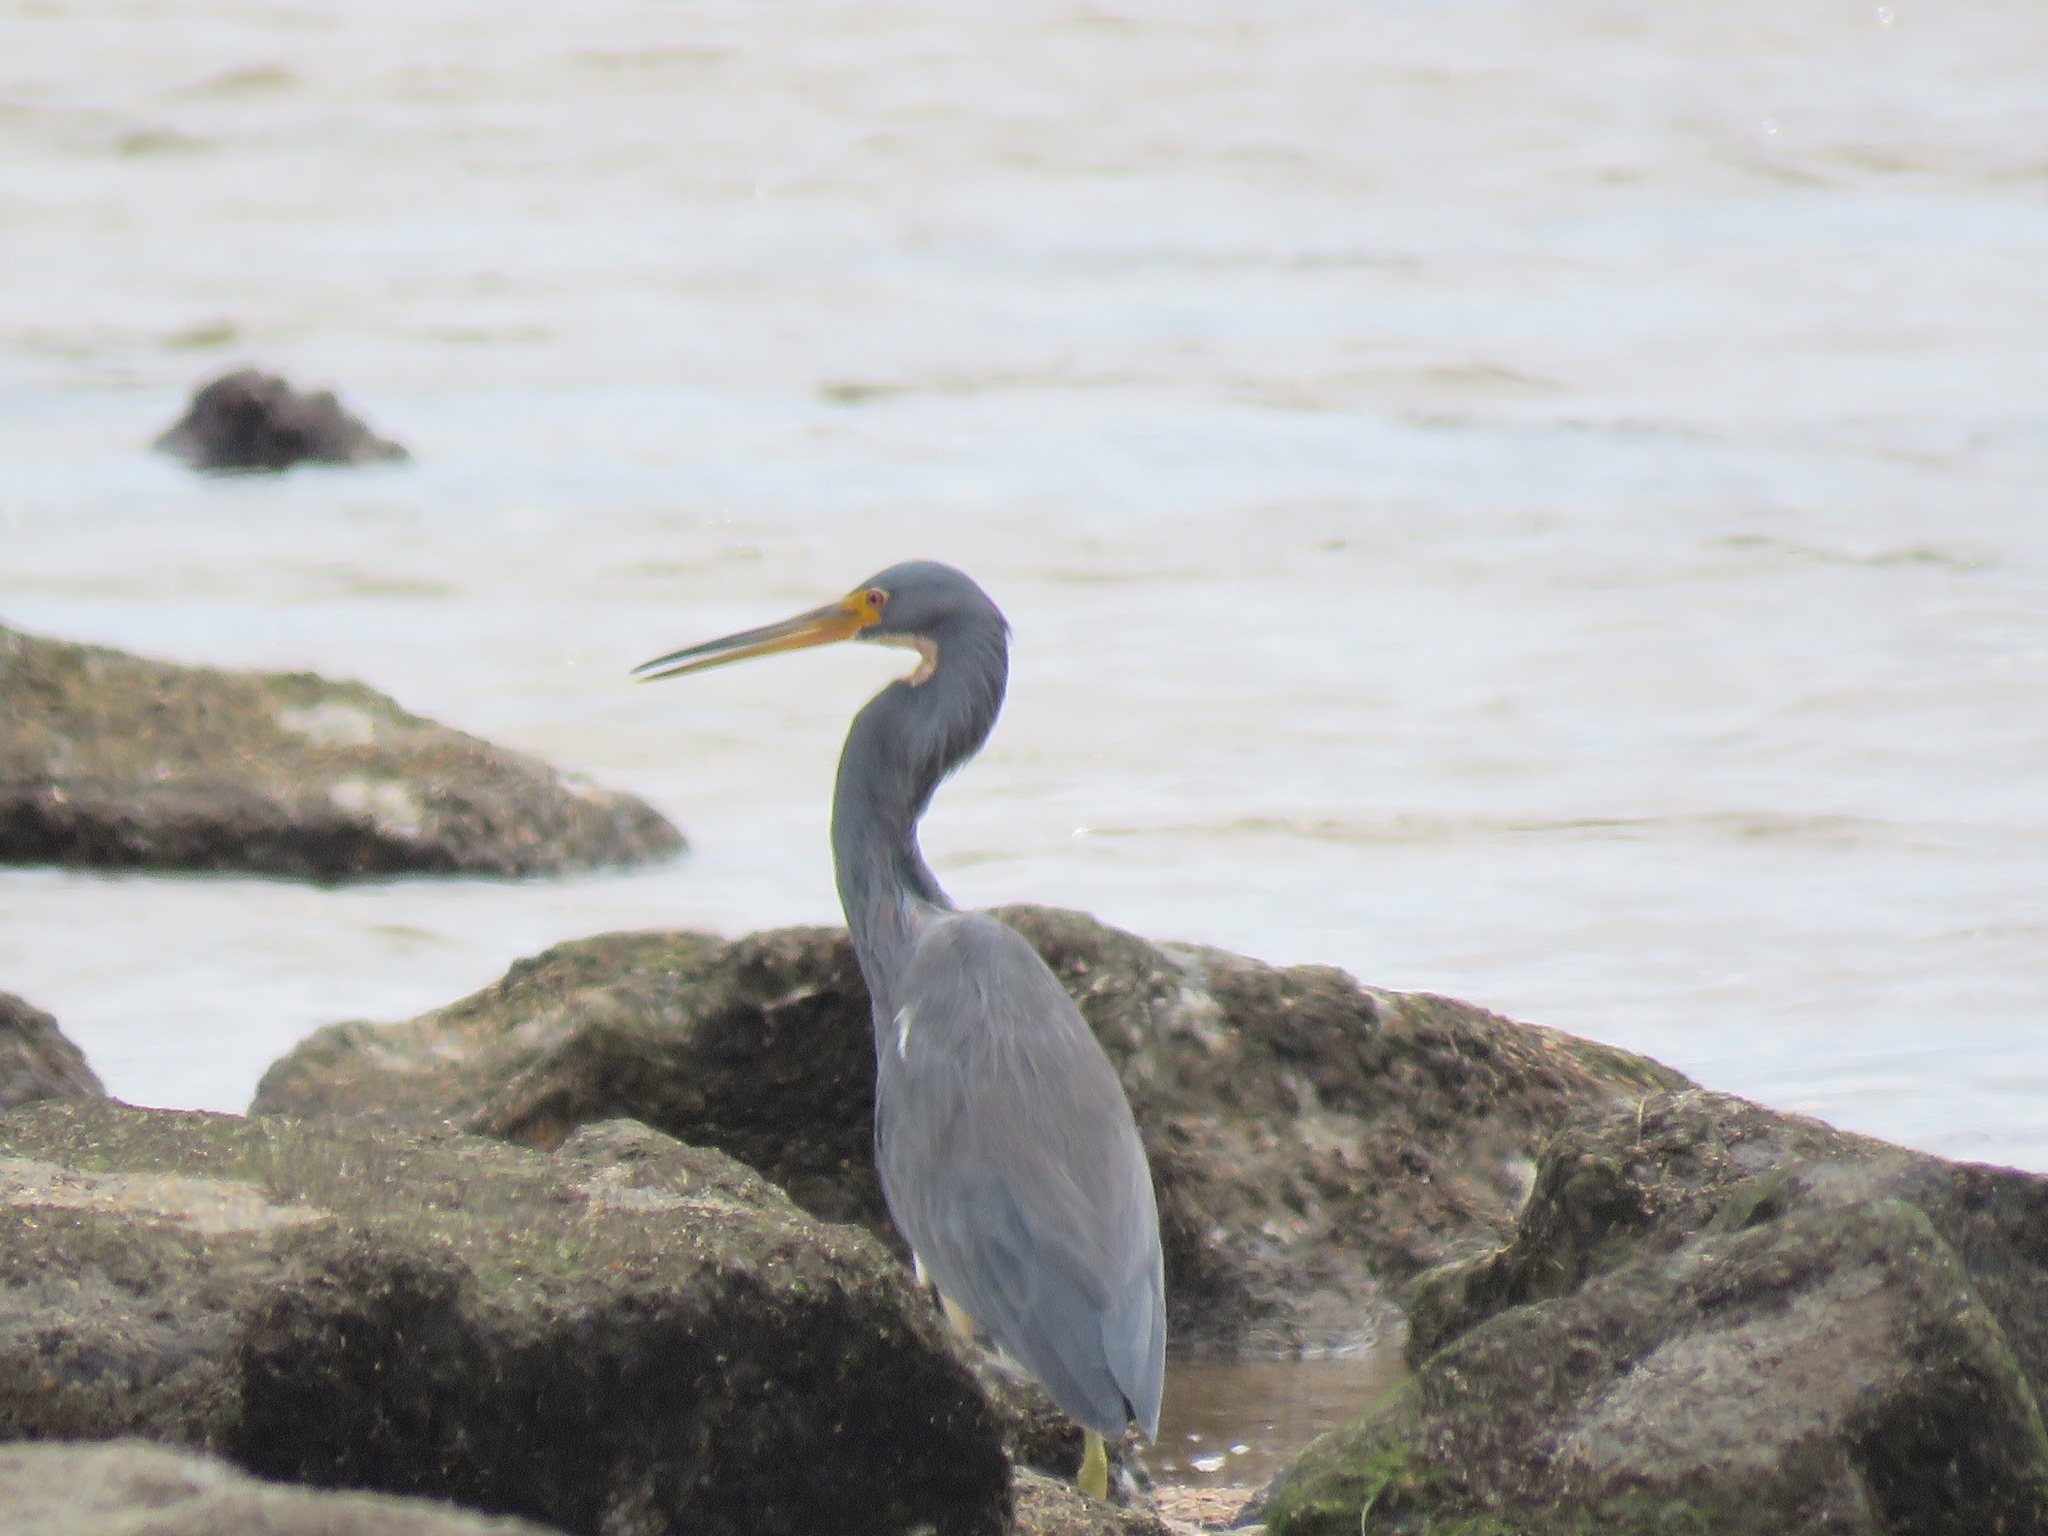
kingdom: Animalia
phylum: Chordata
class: Aves
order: Pelecaniformes
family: Ardeidae
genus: Egretta
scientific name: Egretta tricolor
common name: Tricolored heron
